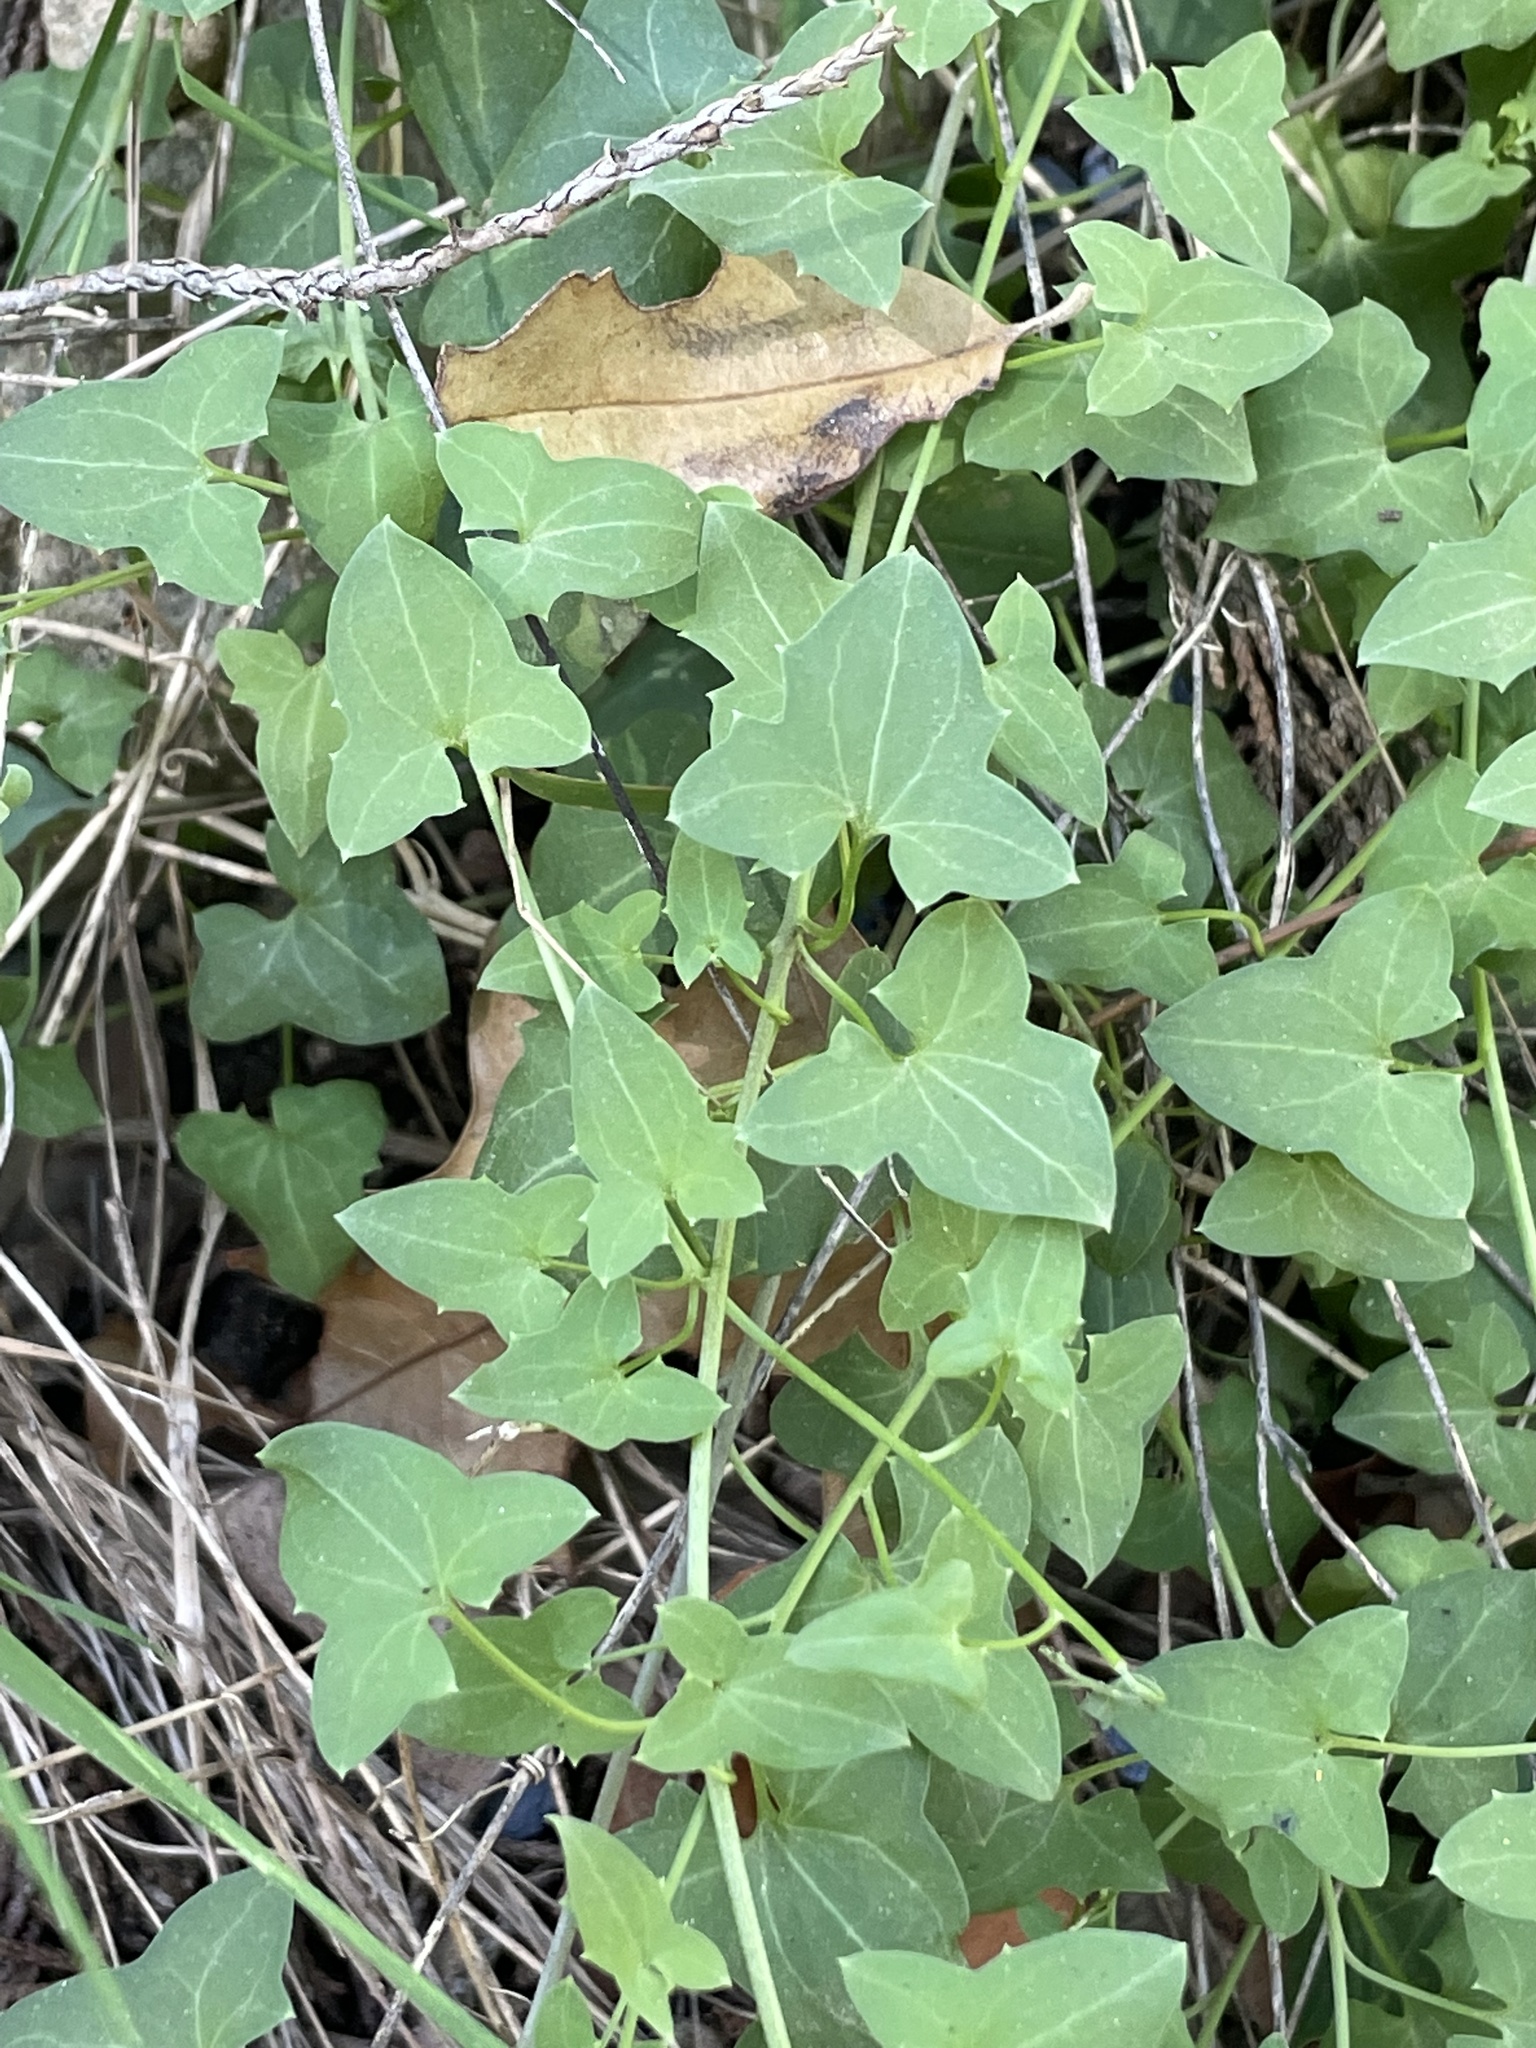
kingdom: Plantae
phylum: Tracheophyta
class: Magnoliopsida
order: Lamiales
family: Plantaginaceae
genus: Maurandella
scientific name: Maurandella antirrhiniflora
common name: Violet twining-snapdragon
